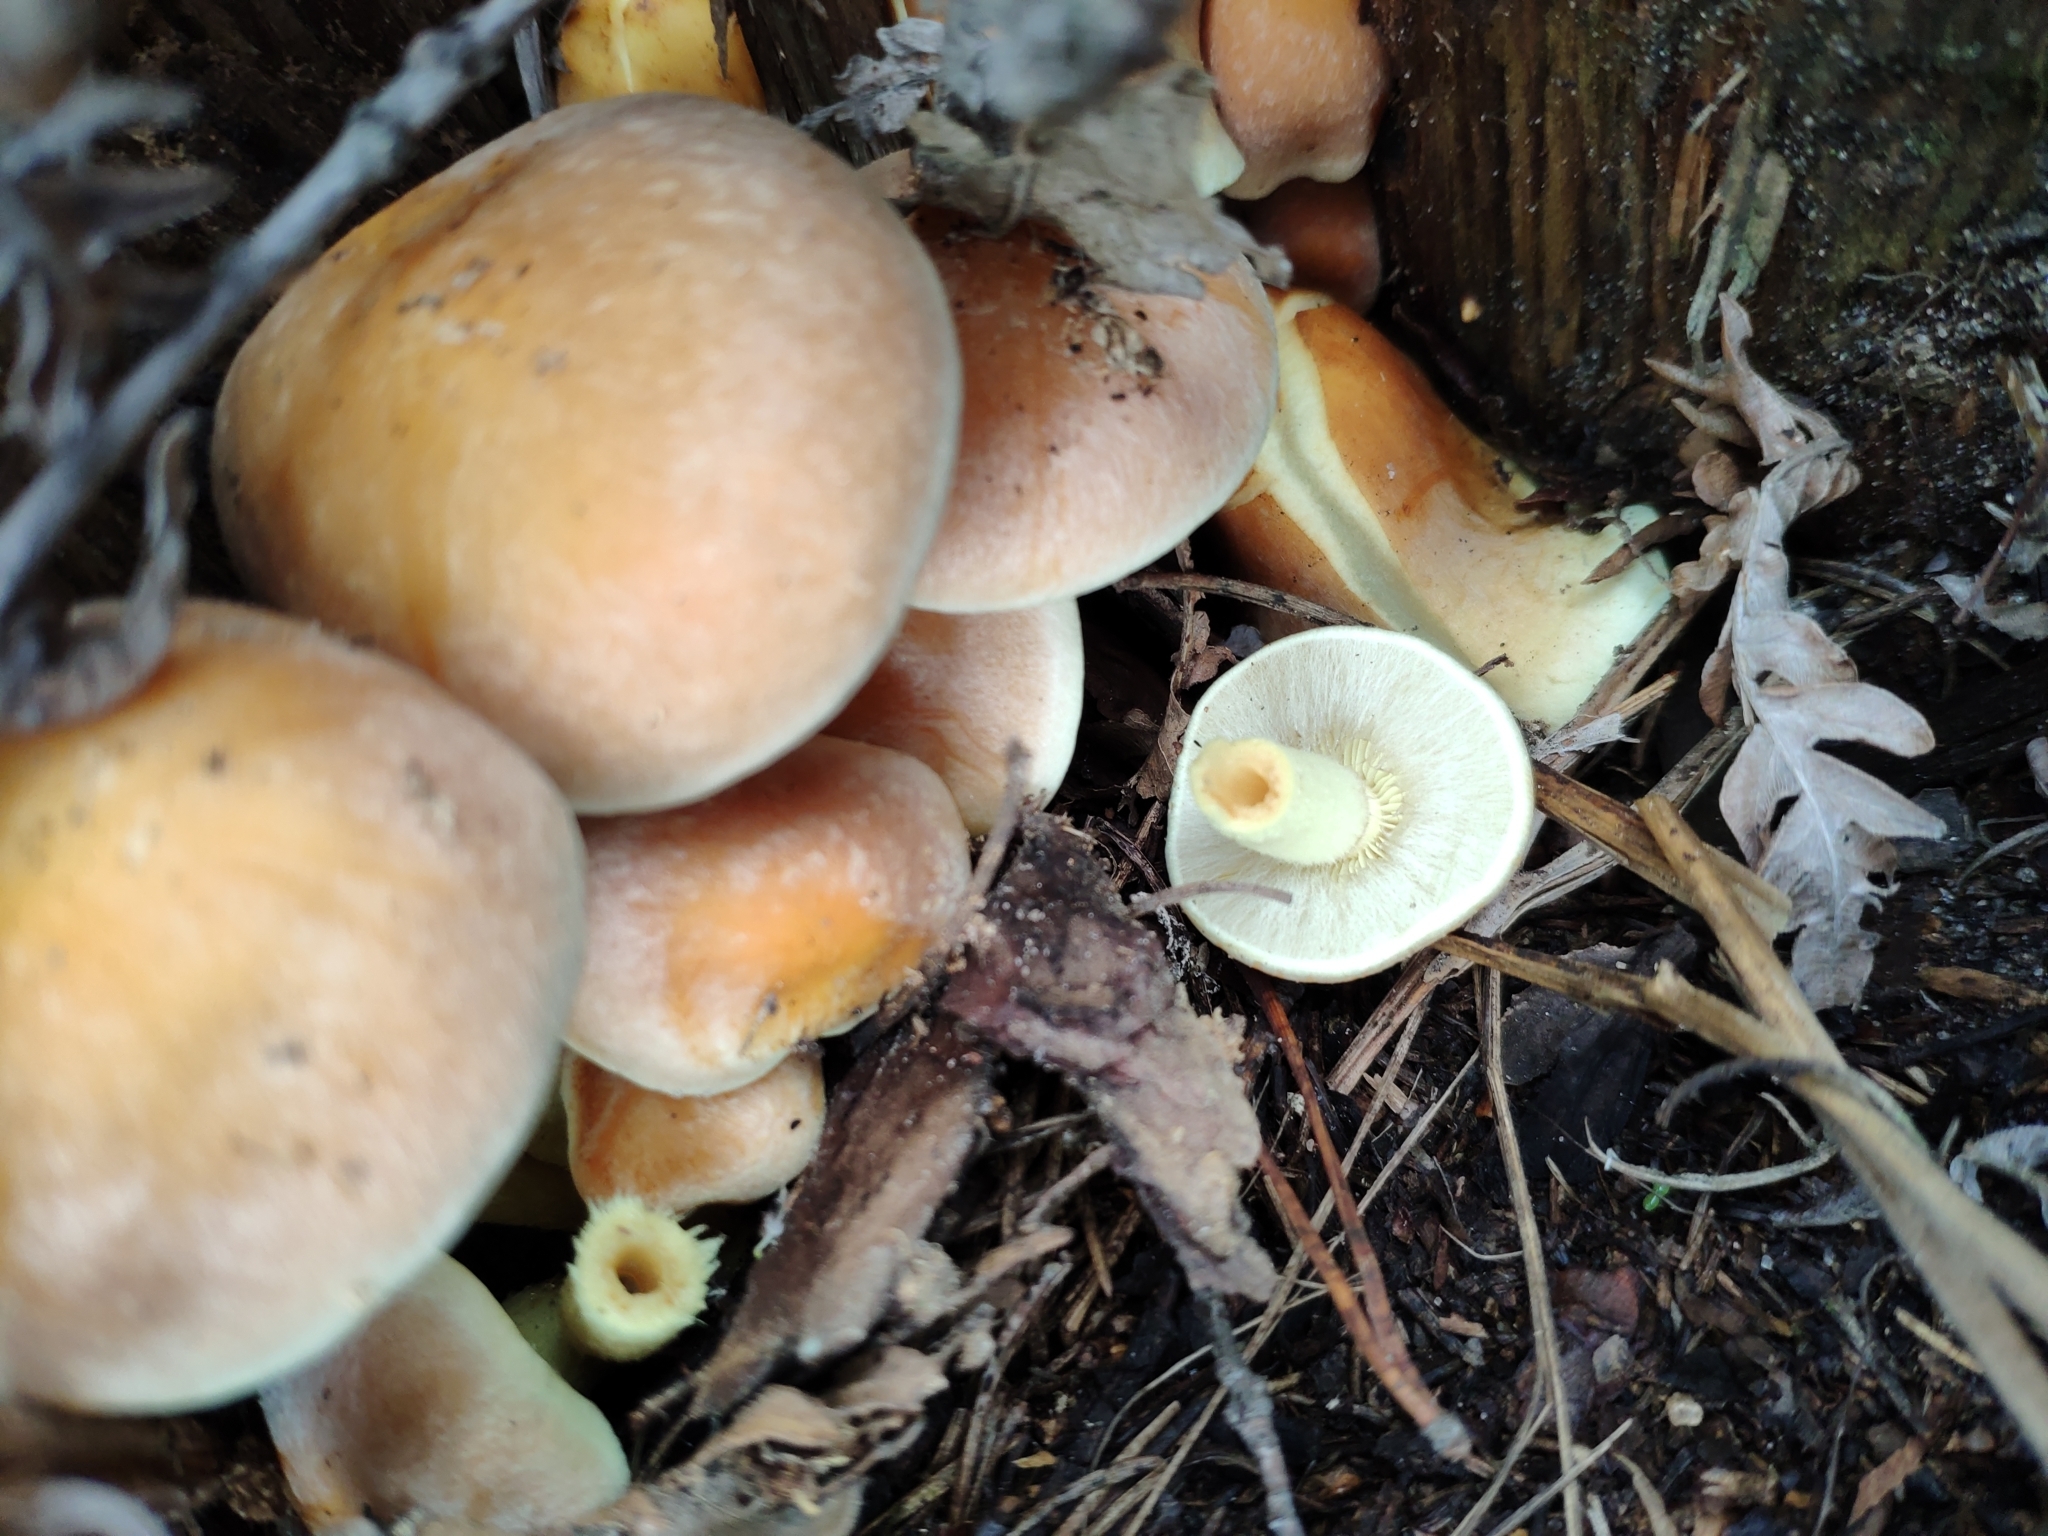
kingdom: Fungi
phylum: Basidiomycota
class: Agaricomycetes
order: Agaricales
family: Strophariaceae
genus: Hypholoma
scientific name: Hypholoma lateritium
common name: Brick caps
